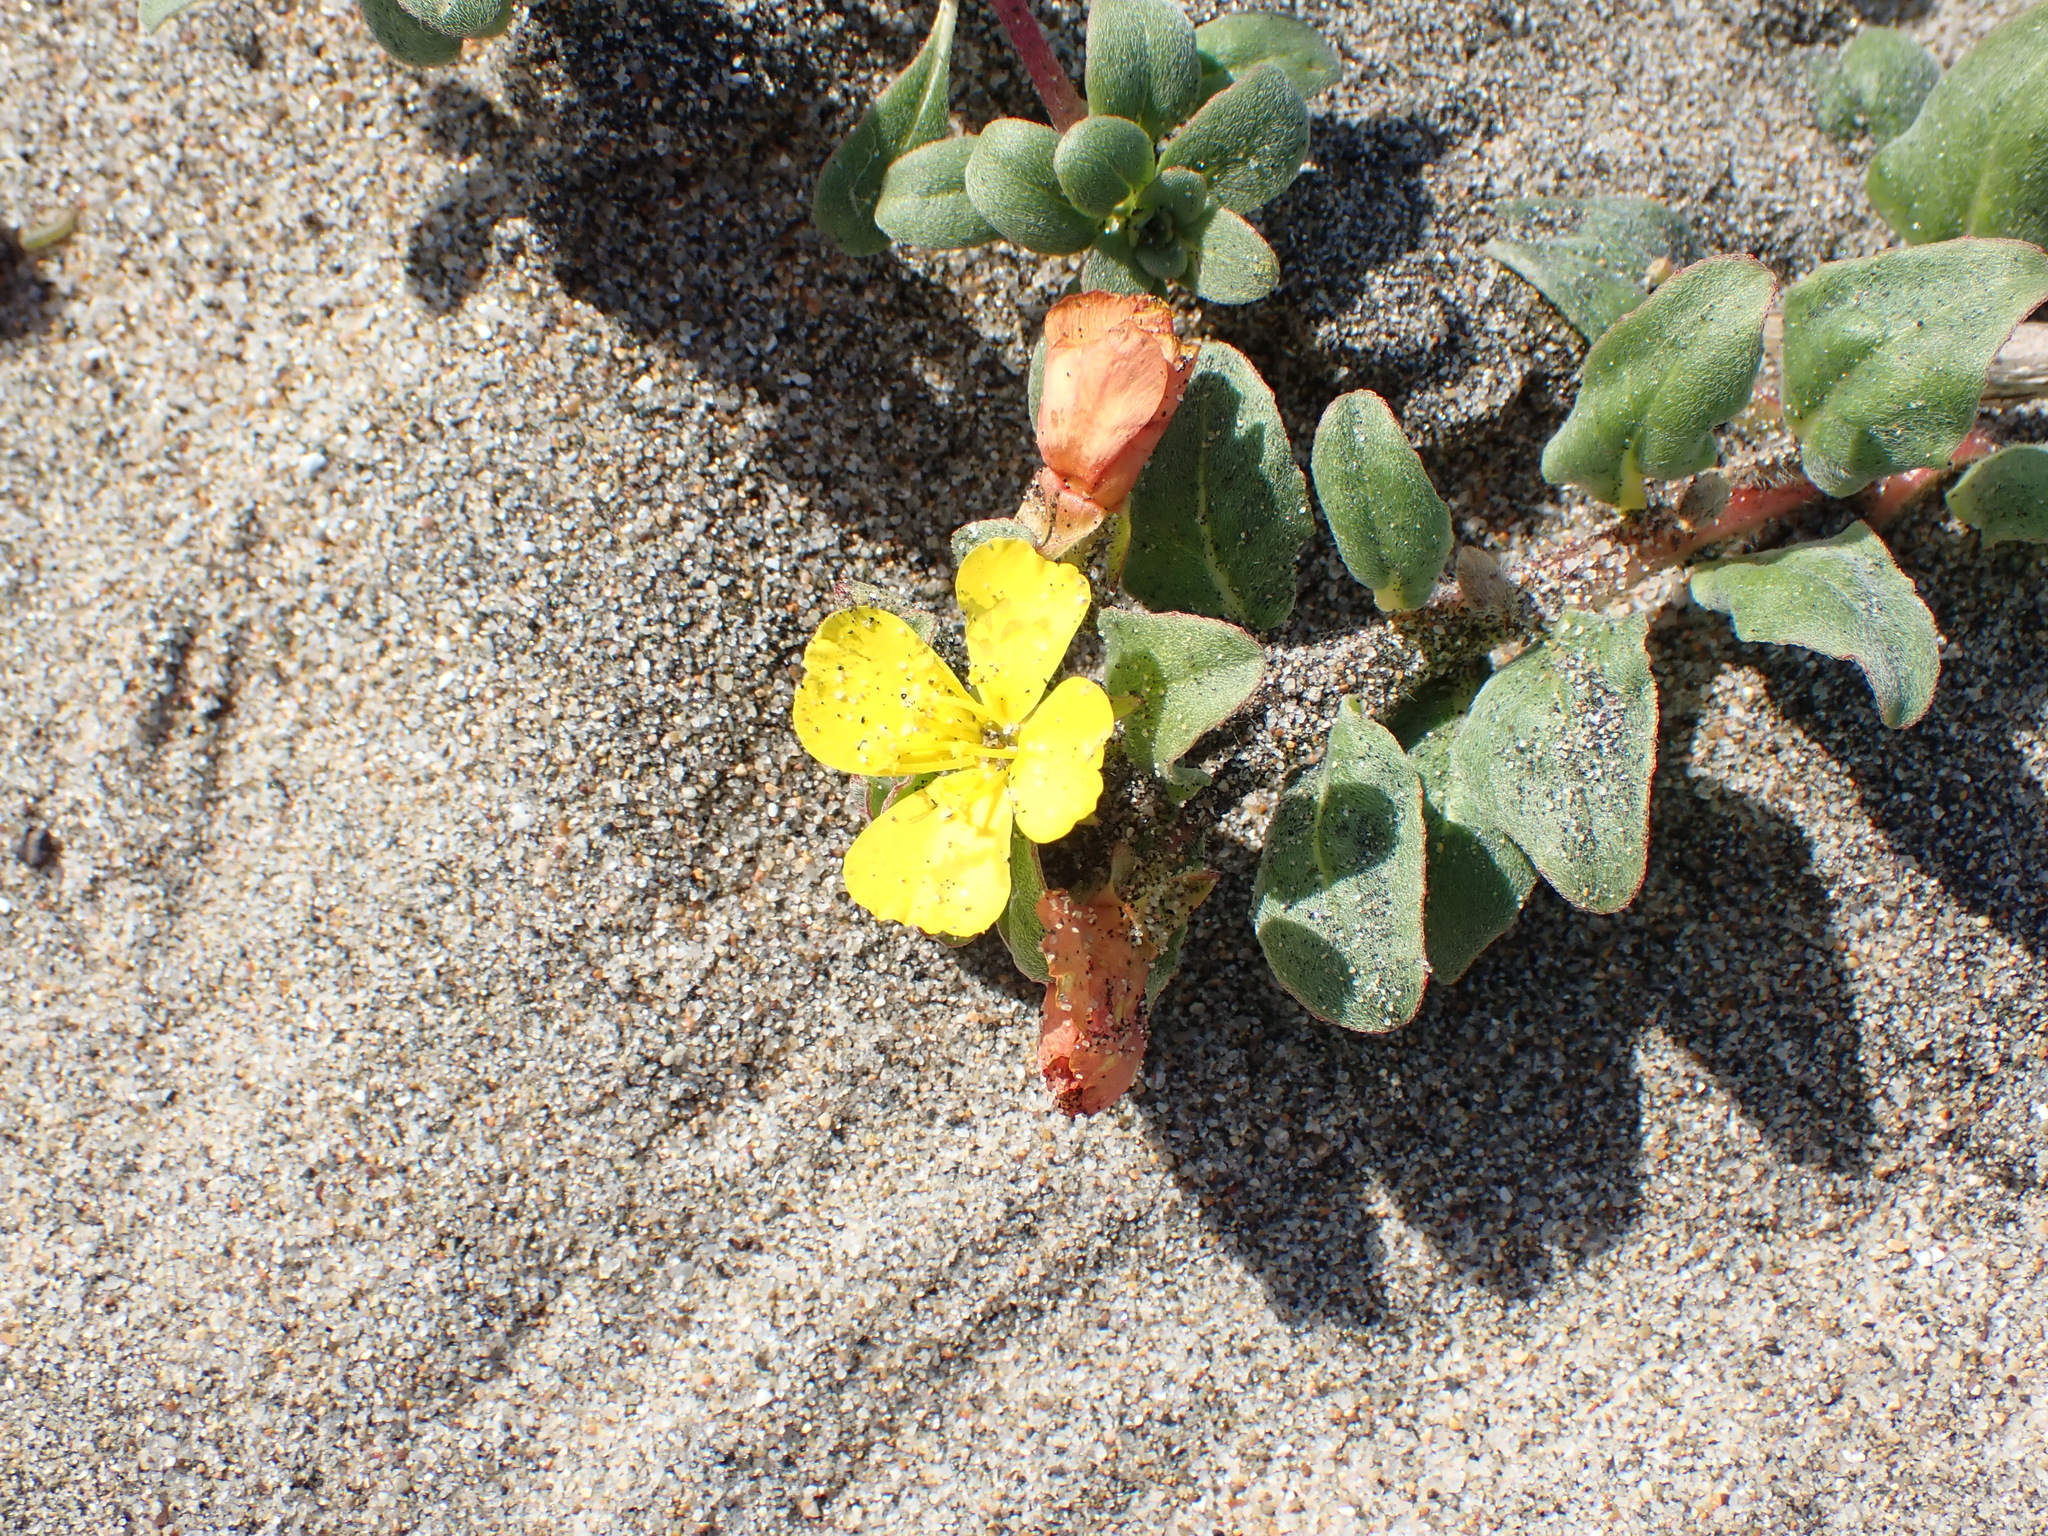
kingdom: Plantae
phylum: Tracheophyta
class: Magnoliopsida
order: Myrtales
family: Onagraceae
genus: Camissoniopsis
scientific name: Camissoniopsis cheiranthifolia
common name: Beach suncup
